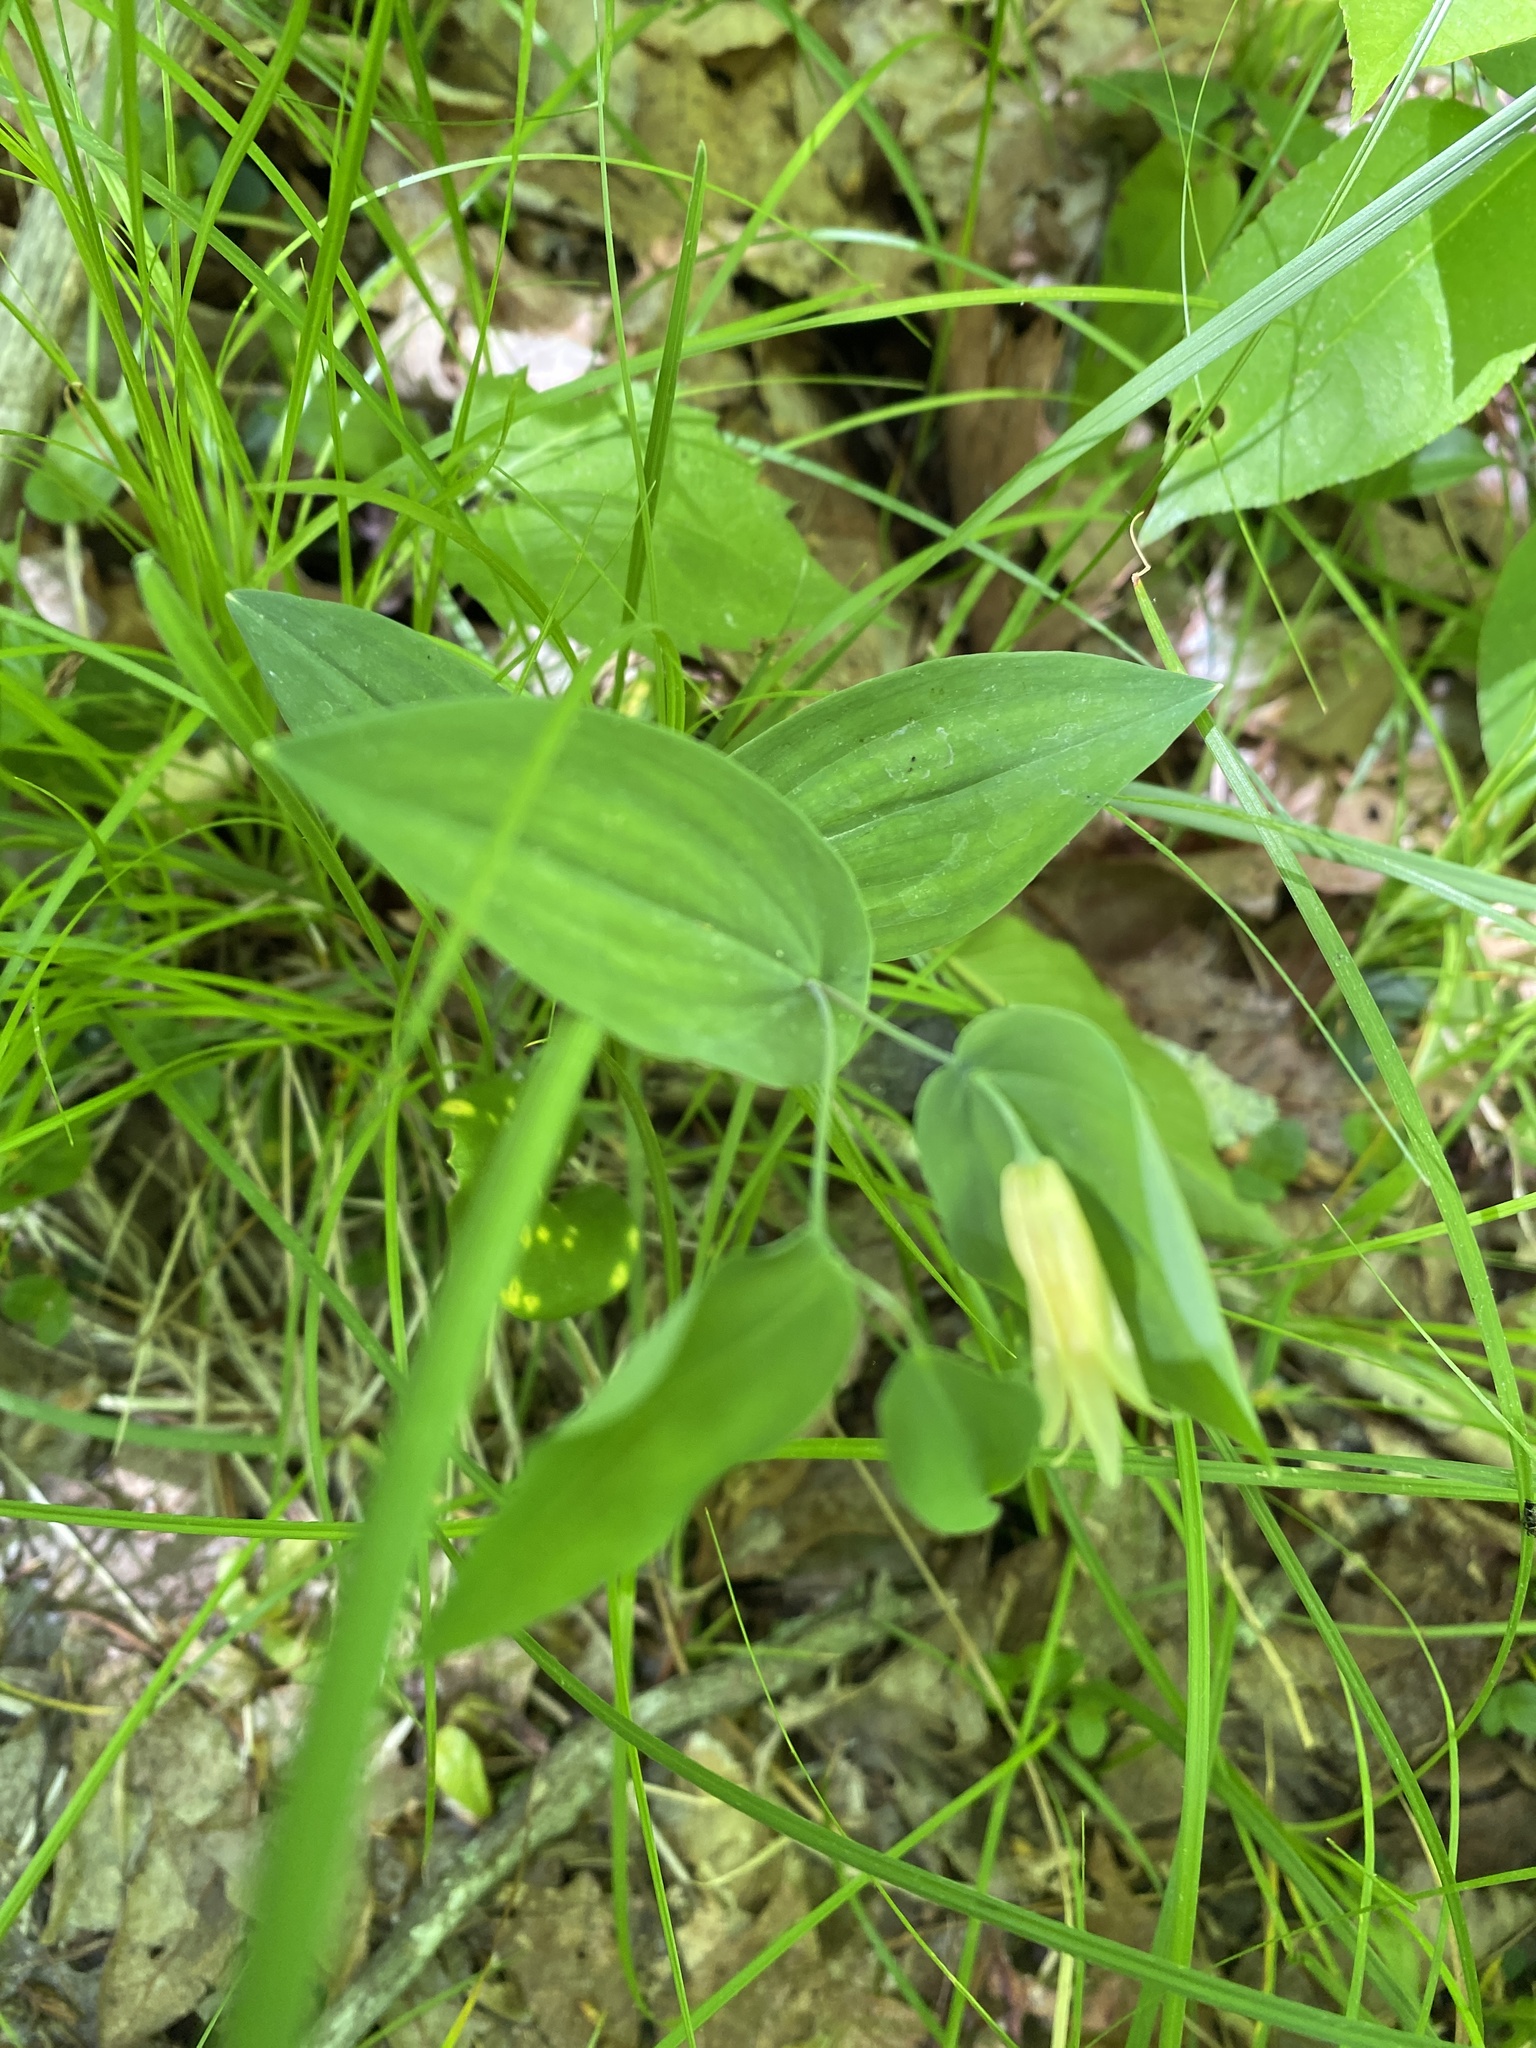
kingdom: Plantae
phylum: Tracheophyta
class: Liliopsida
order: Liliales
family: Colchicaceae
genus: Uvularia
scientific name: Uvularia perfoliata
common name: Perfoliate bellwort
